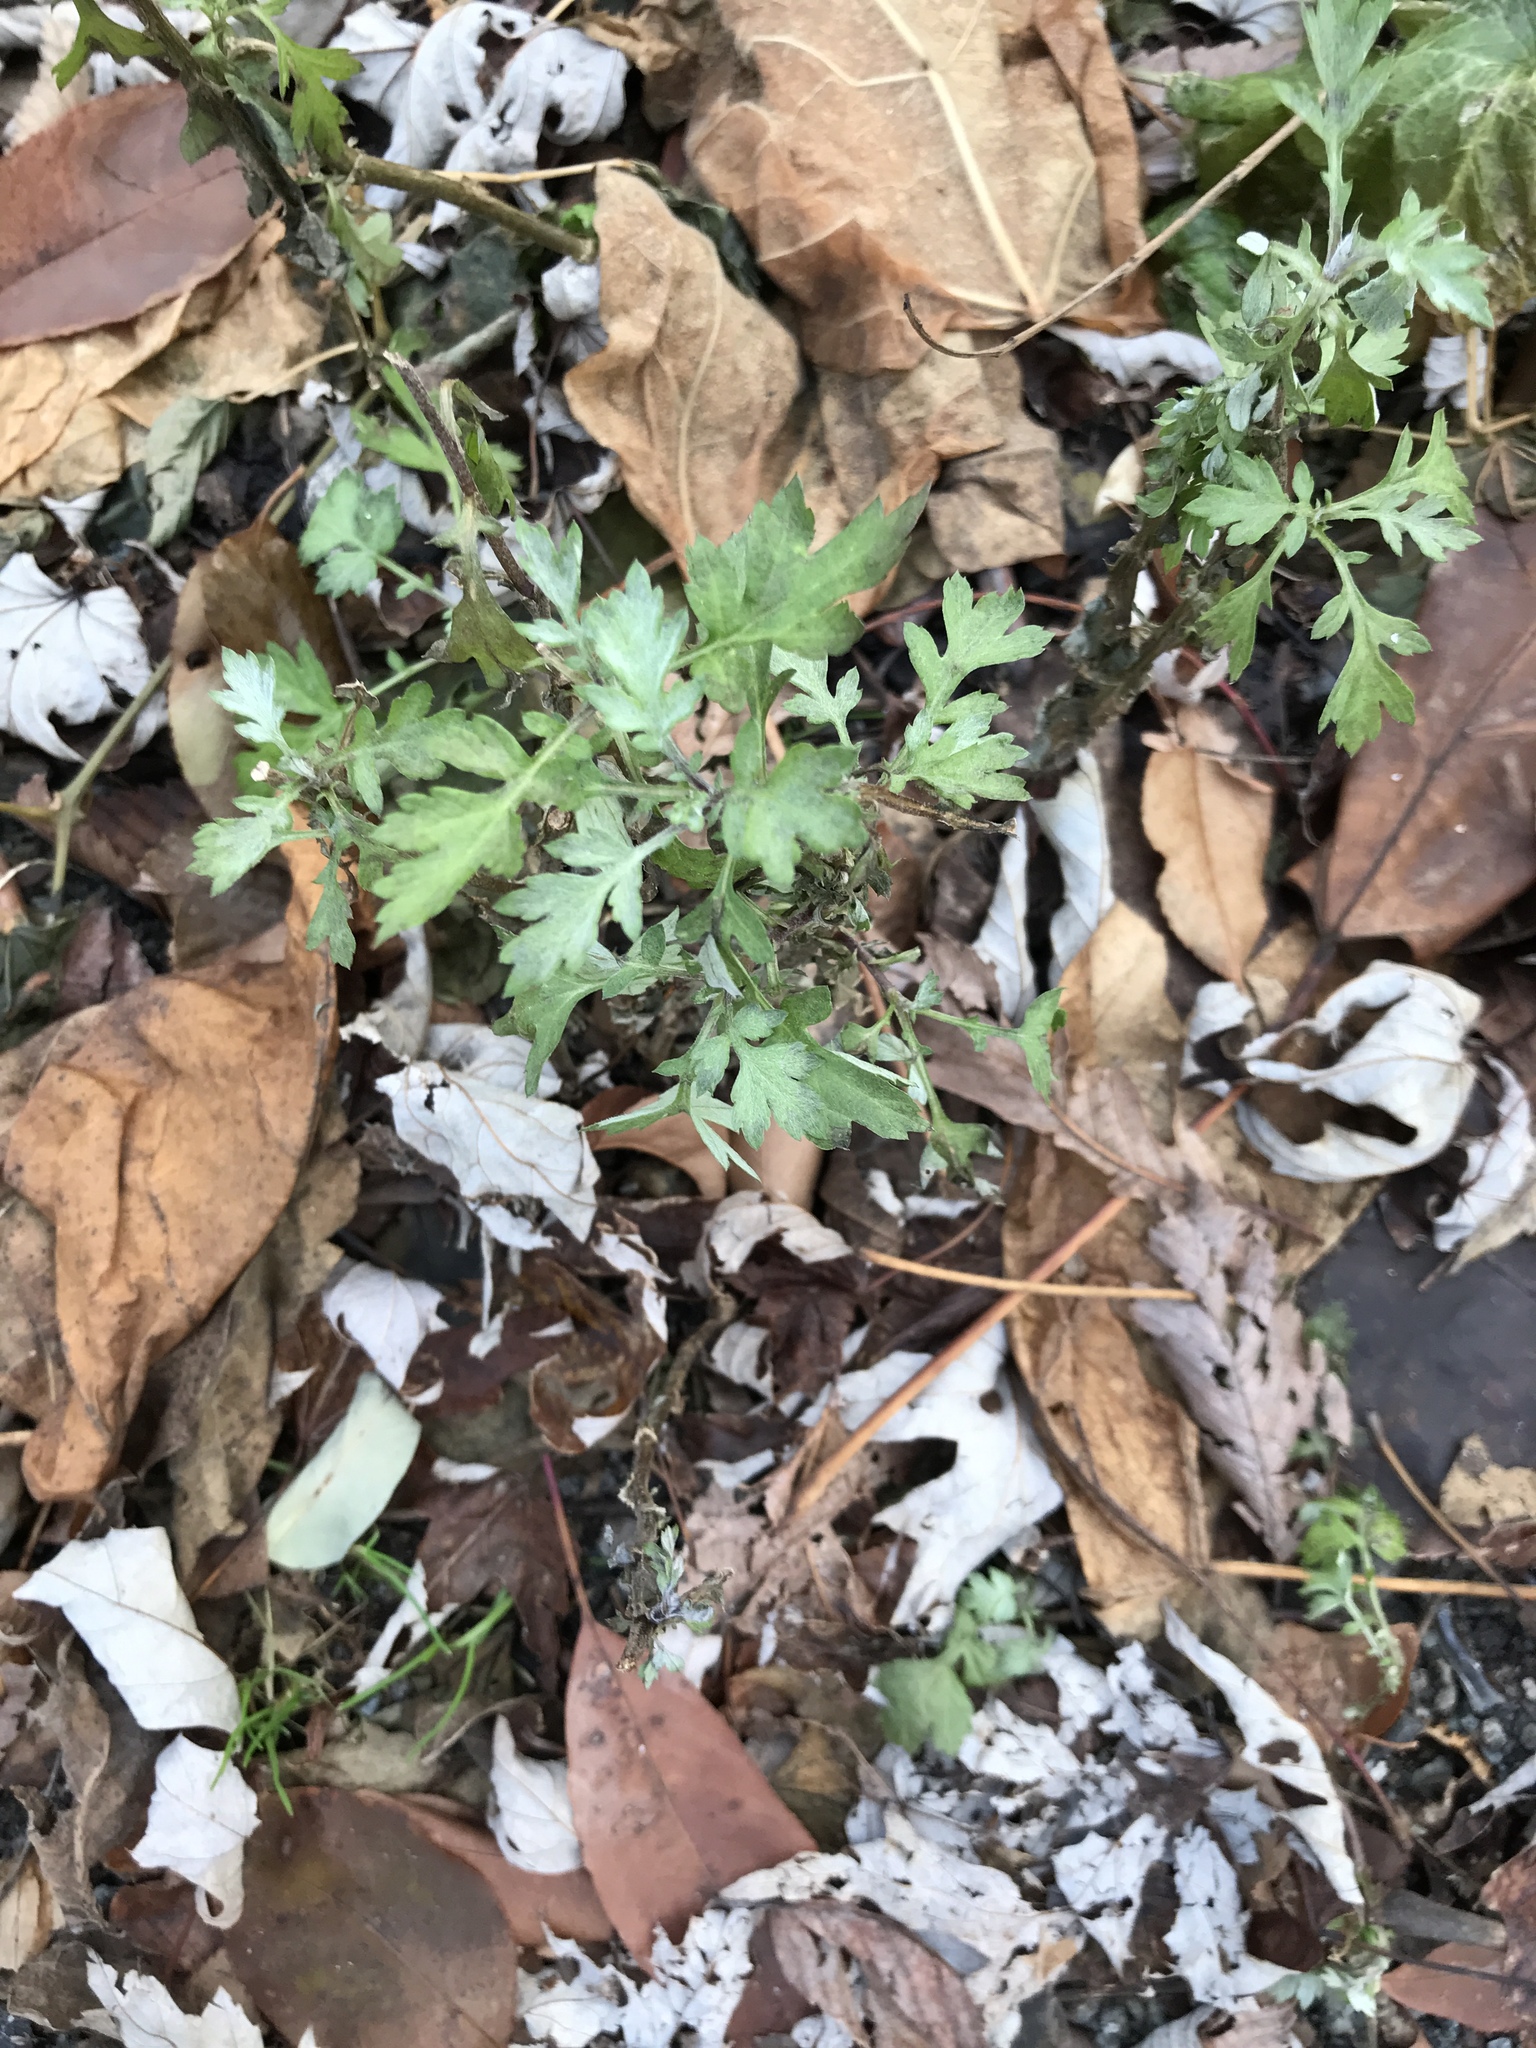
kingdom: Plantae
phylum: Tracheophyta
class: Magnoliopsida
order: Asterales
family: Asteraceae
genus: Artemisia
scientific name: Artemisia vulgaris
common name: Mugwort
